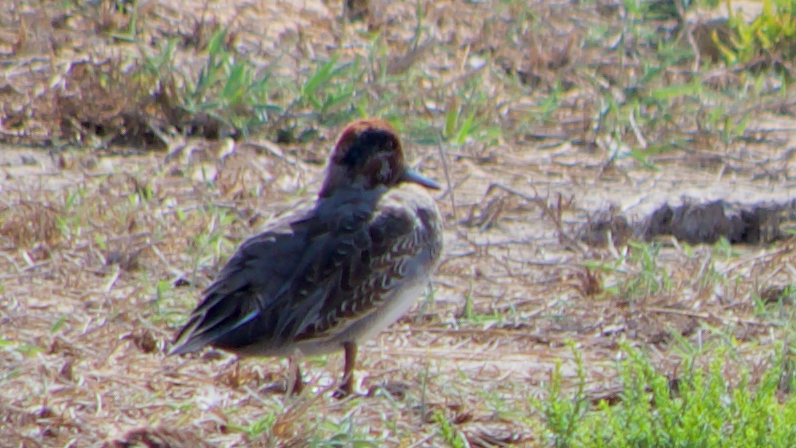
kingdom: Animalia
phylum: Chordata
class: Aves
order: Anseriformes
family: Anatidae
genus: Anas
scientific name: Anas crecca
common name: Eurasian teal
